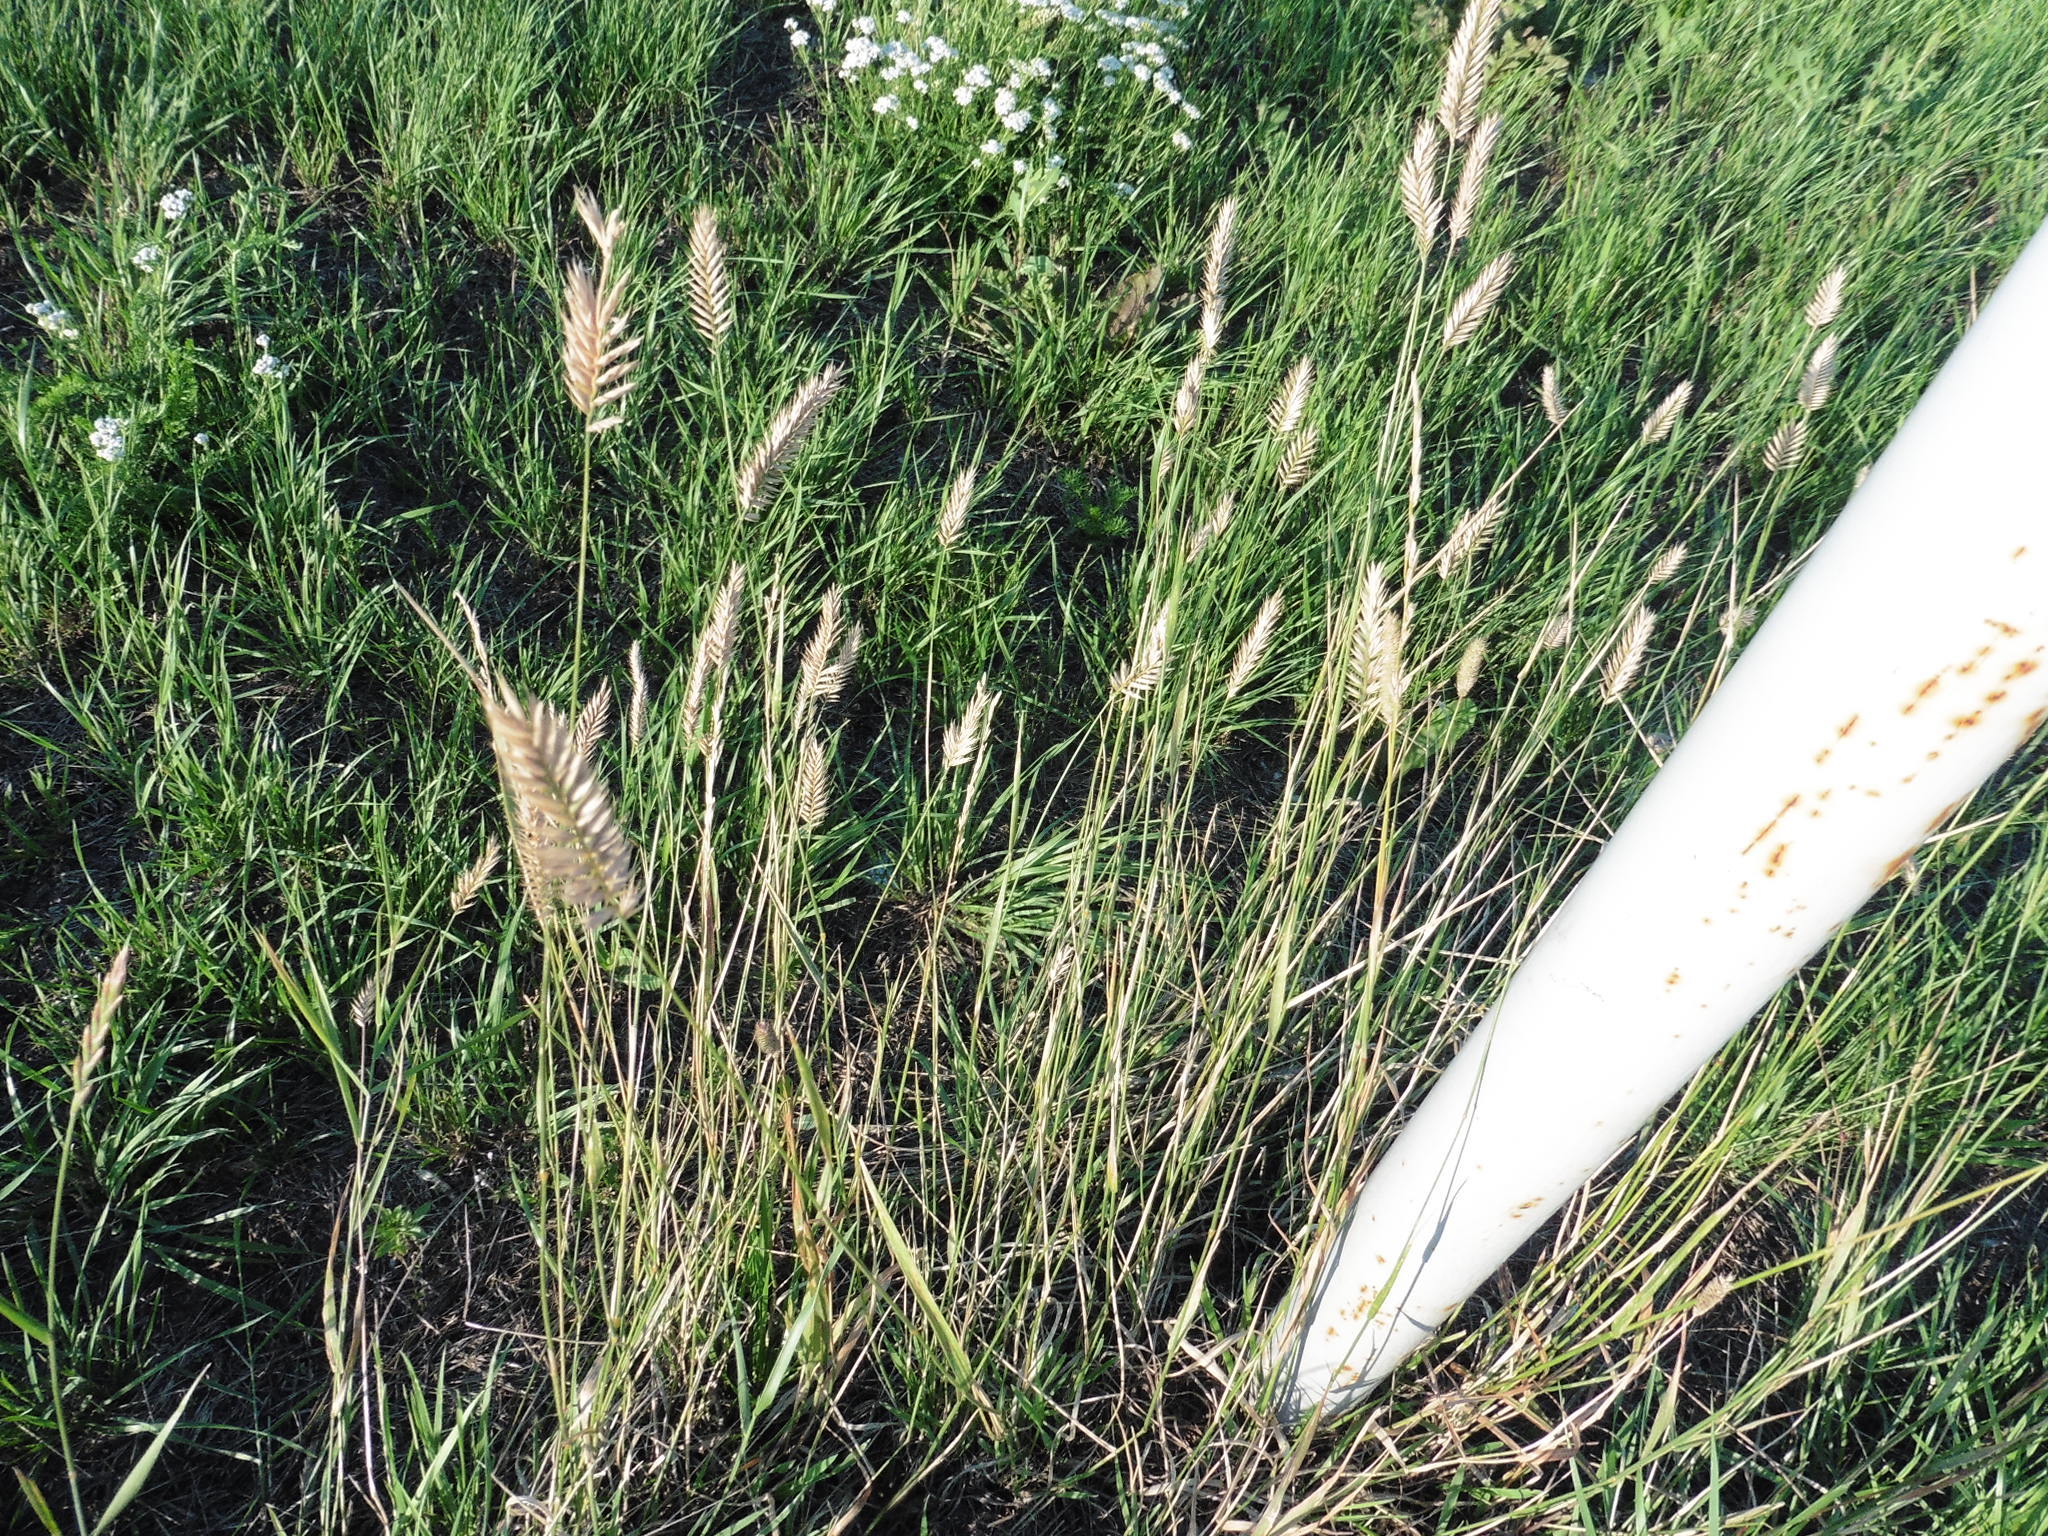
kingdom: Plantae
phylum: Tracheophyta
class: Liliopsida
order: Poales
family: Poaceae
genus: Agropyron
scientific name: Agropyron cristatum
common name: Crested wheatgrass
